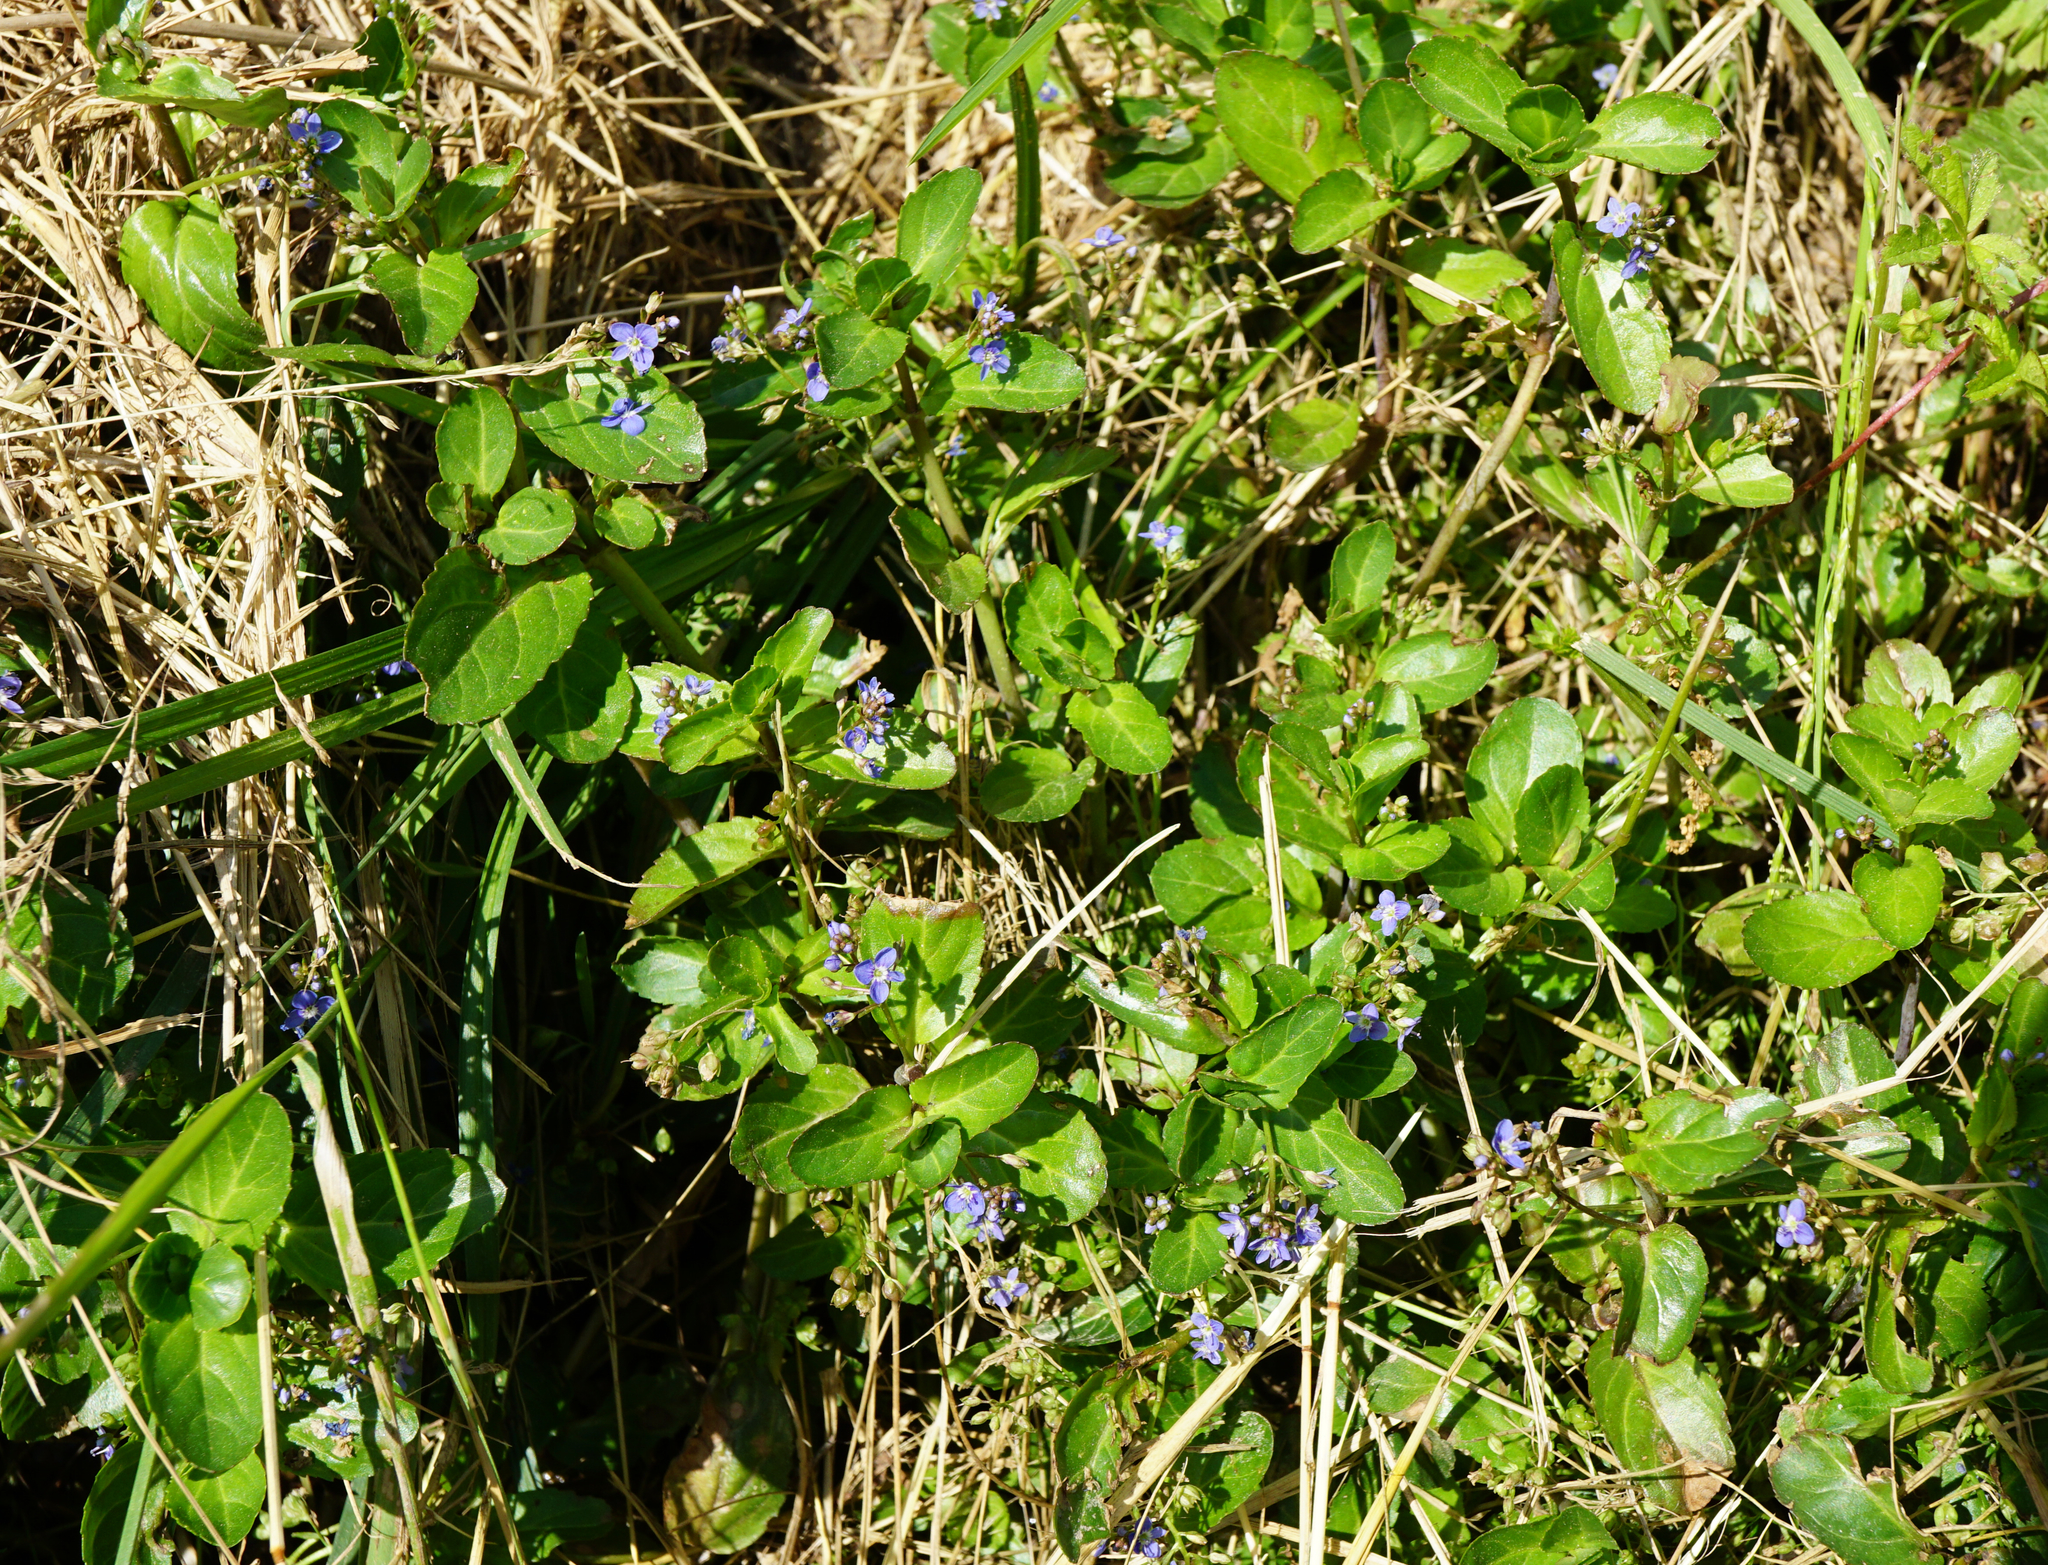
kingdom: Plantae
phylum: Tracheophyta
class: Magnoliopsida
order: Lamiales
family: Plantaginaceae
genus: Veronica
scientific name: Veronica beccabunga
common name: Brooklime
